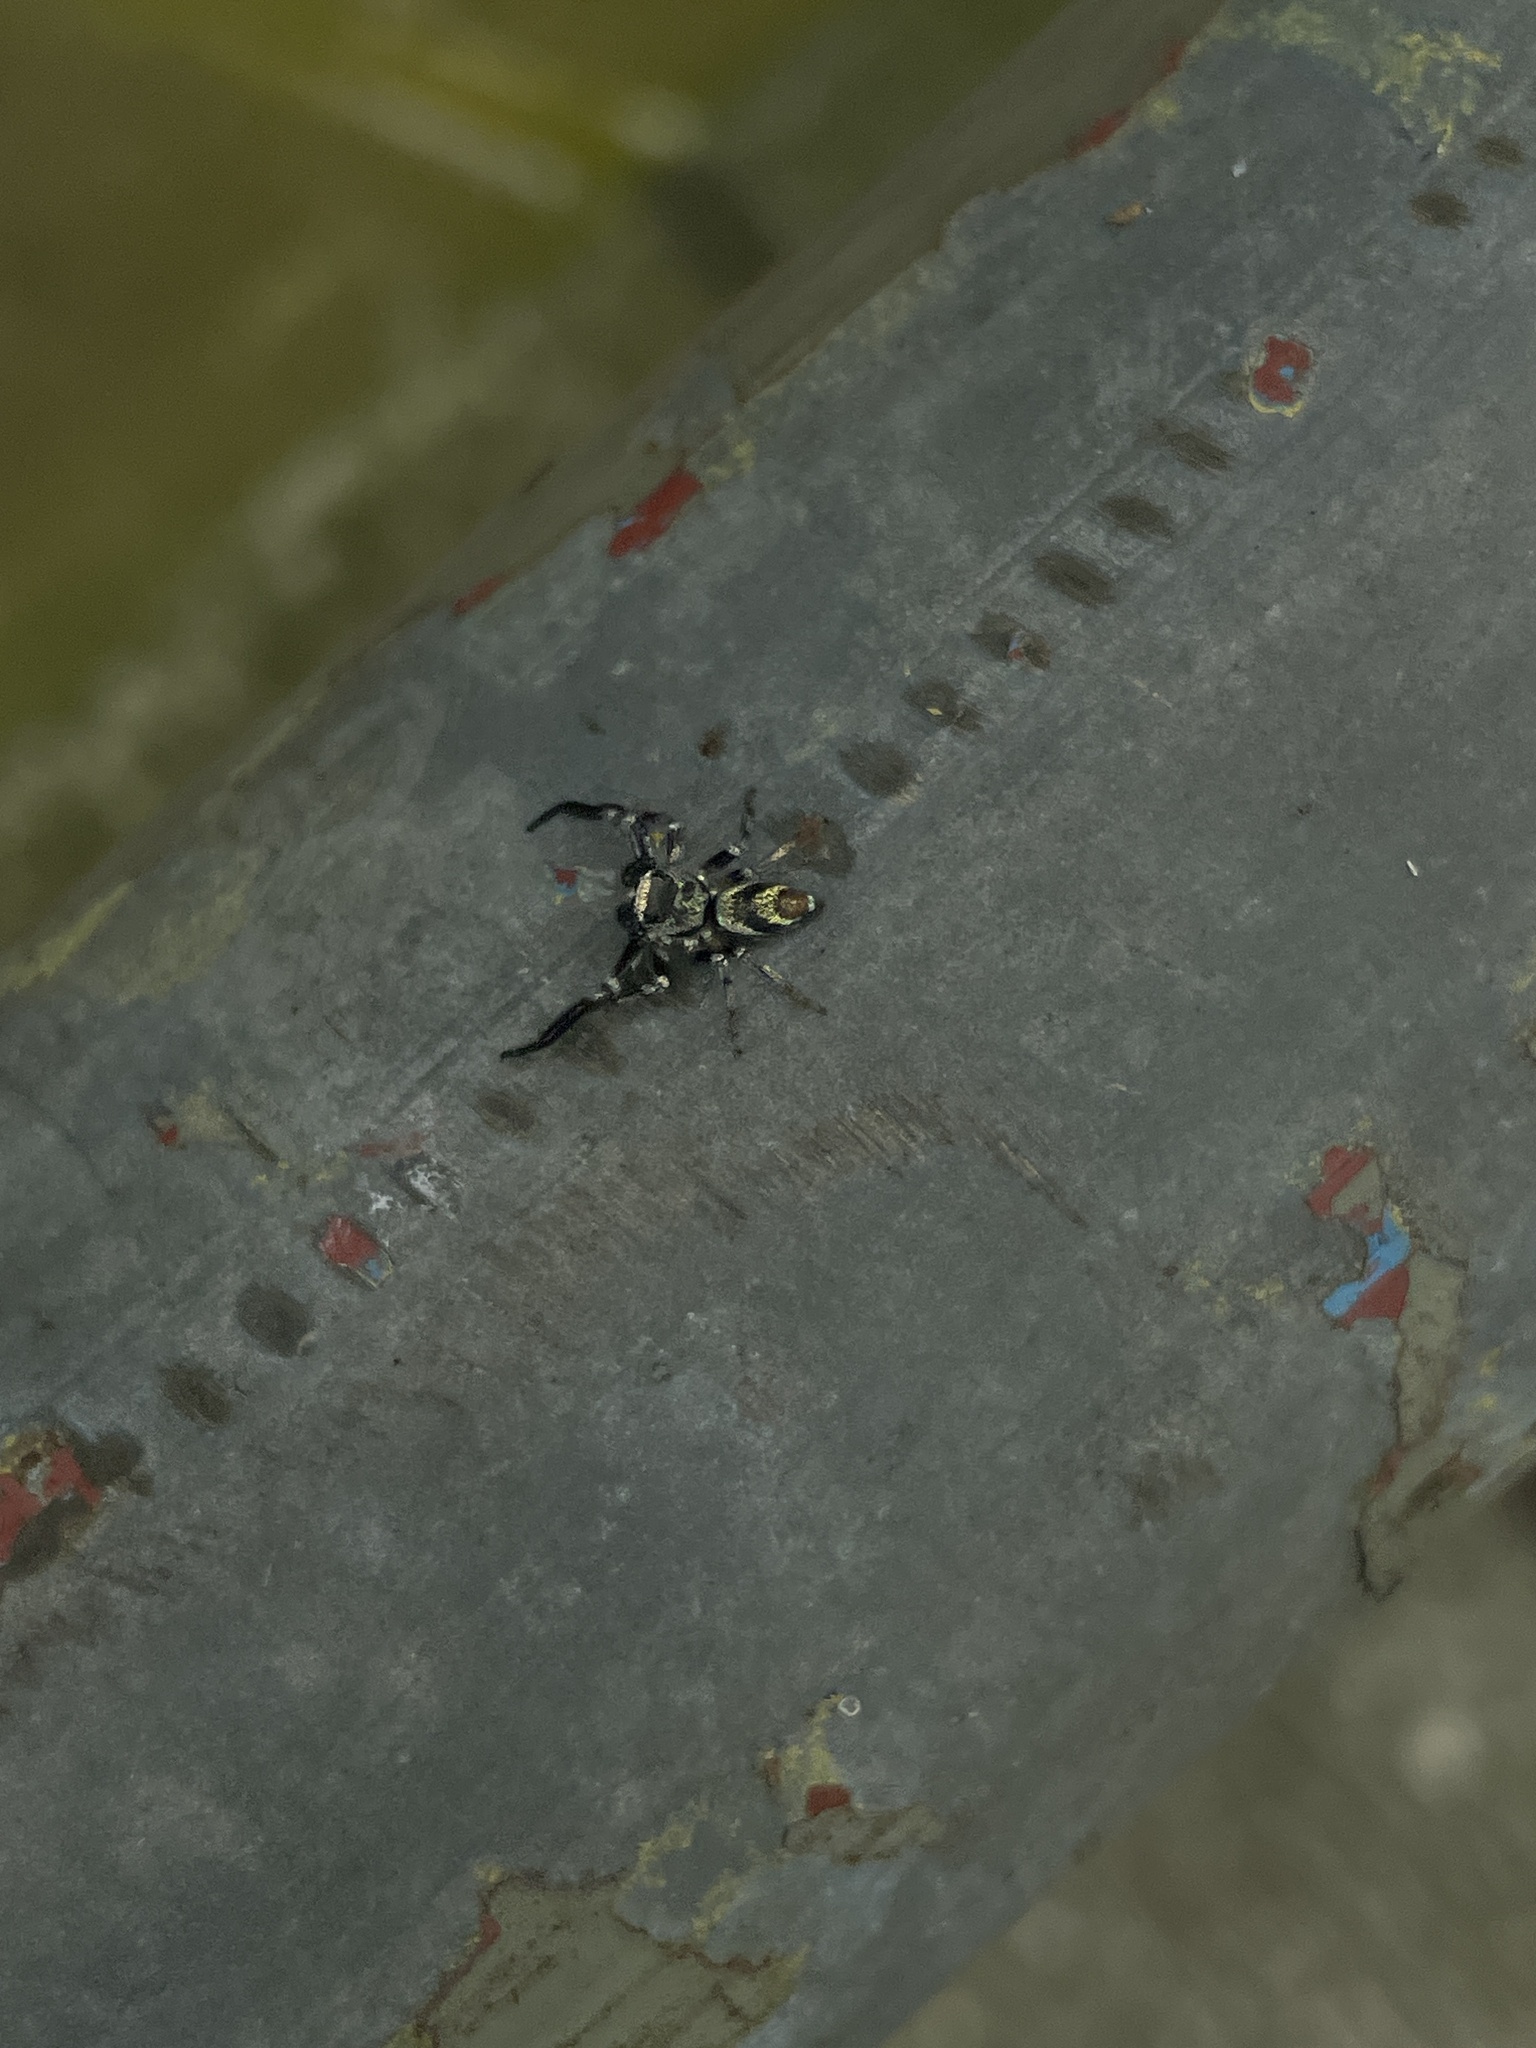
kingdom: Animalia
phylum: Arthropoda
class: Arachnida
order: Araneae
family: Salticidae
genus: Thiania
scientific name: Thiania bhamoensis
